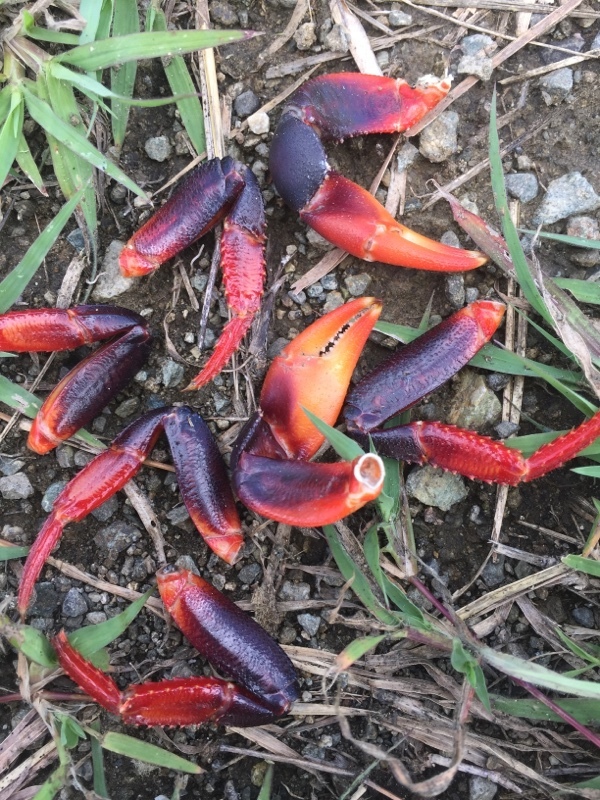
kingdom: Animalia
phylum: Arthropoda
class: Malacostraca
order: Decapoda
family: Gecarcinidae
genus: Gecarcinus
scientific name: Gecarcinus ruricola
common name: Black land crab
